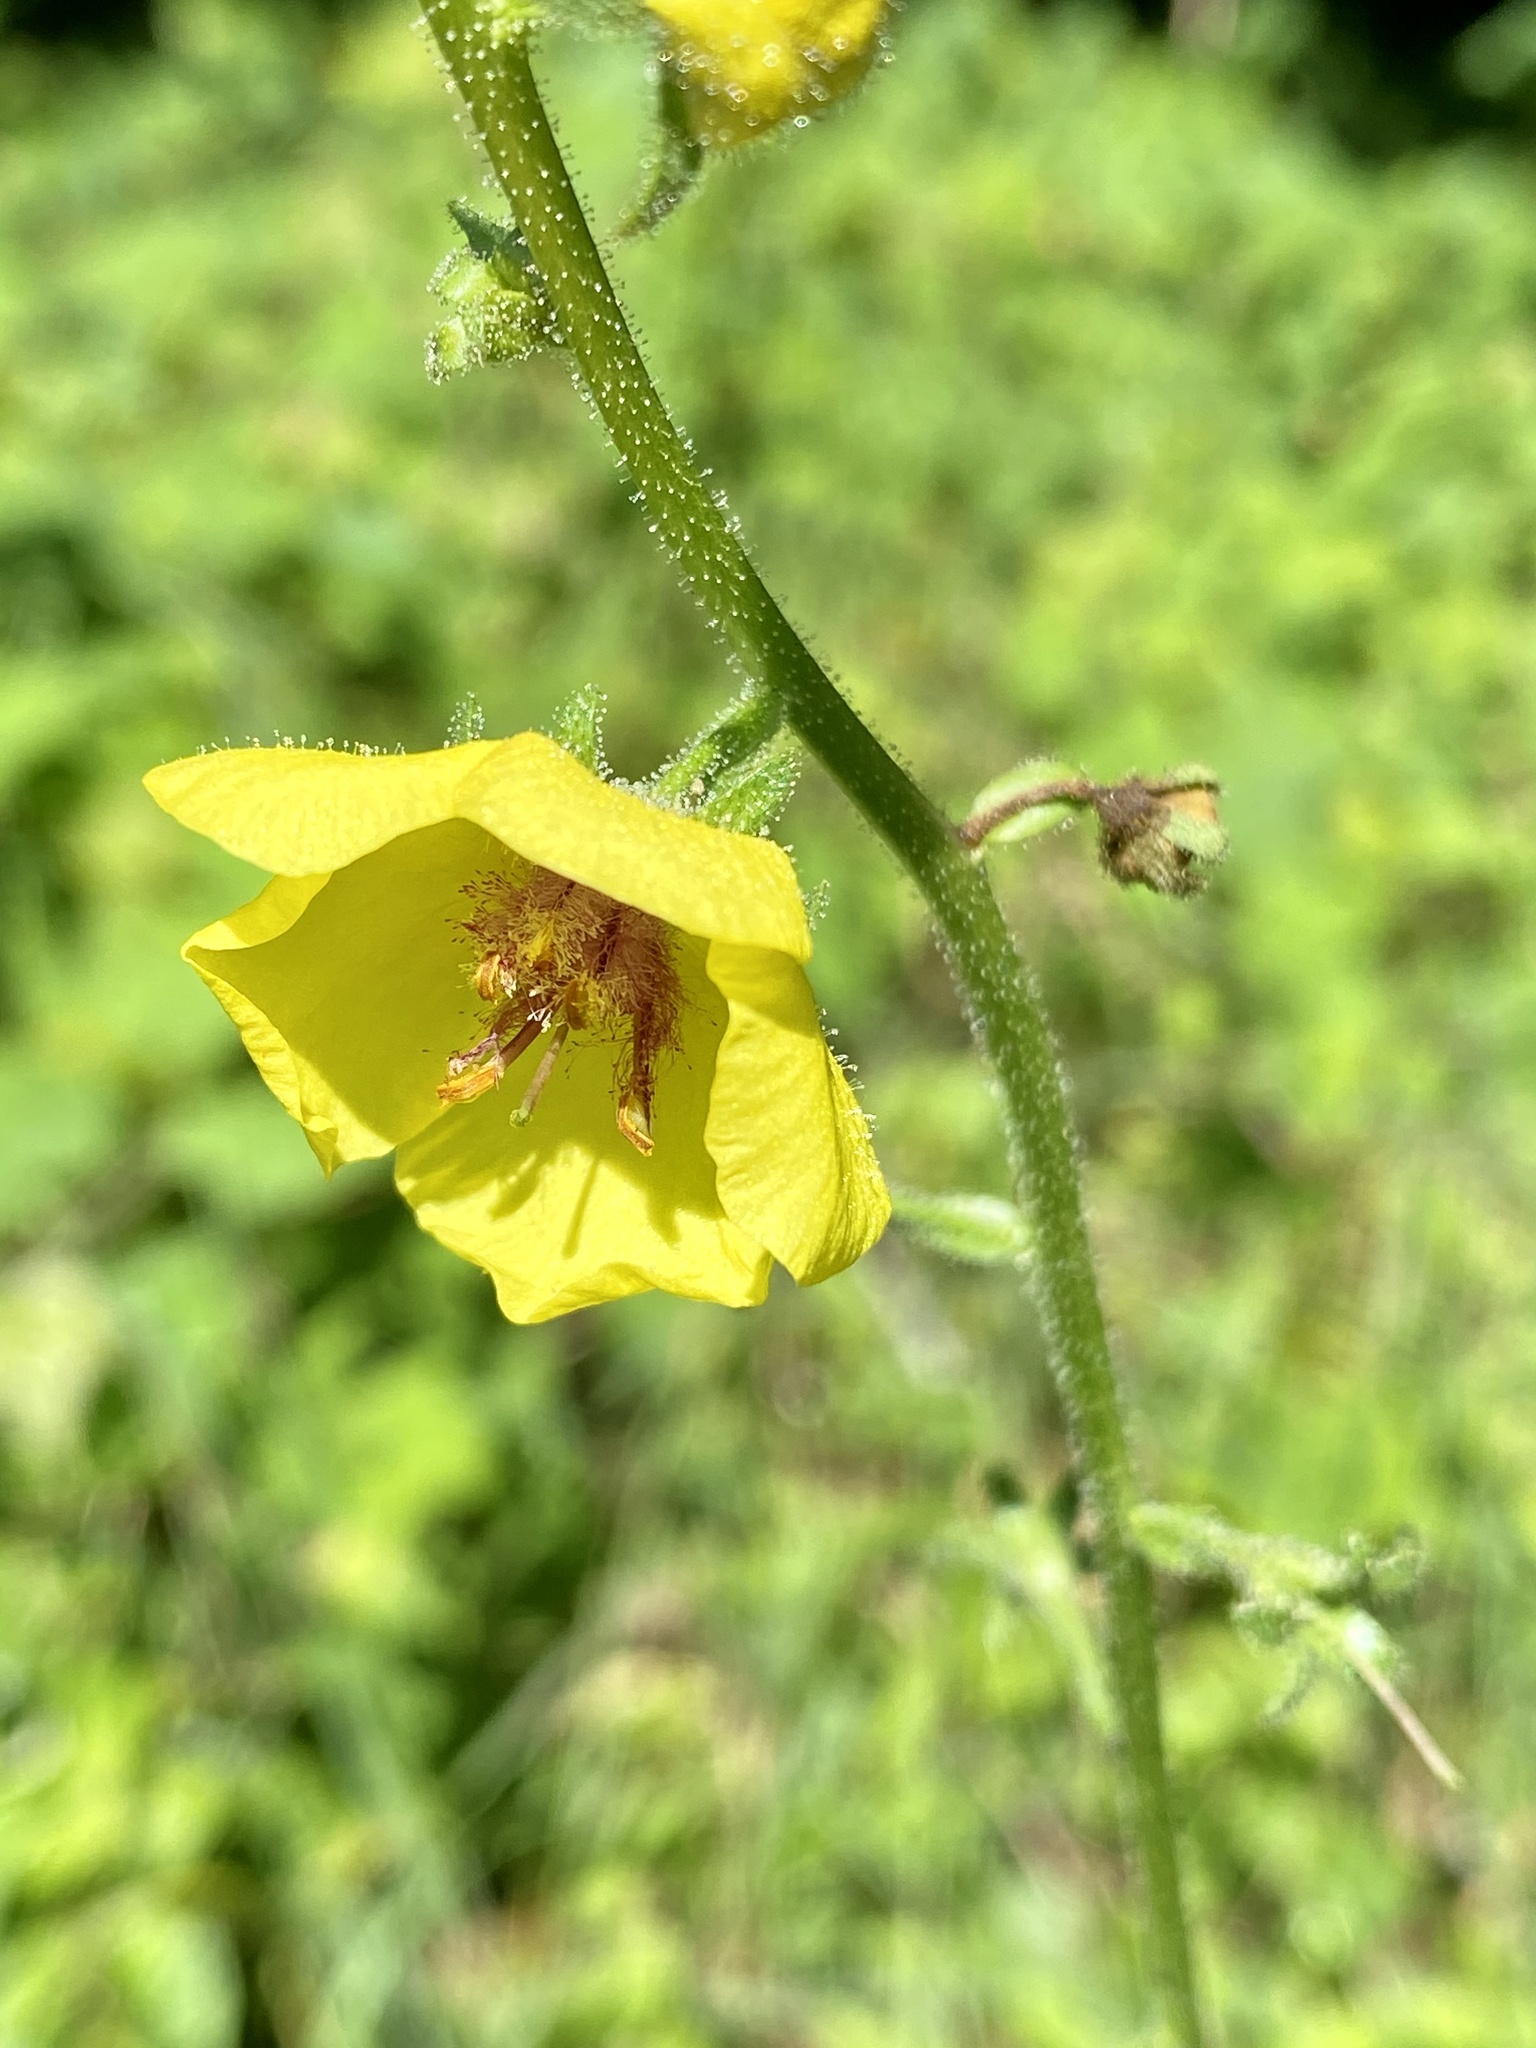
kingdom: Plantae
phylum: Tracheophyta
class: Magnoliopsida
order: Lamiales
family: Scrophulariaceae
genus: Verbascum
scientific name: Verbascum blattaria
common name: Moth mullein
